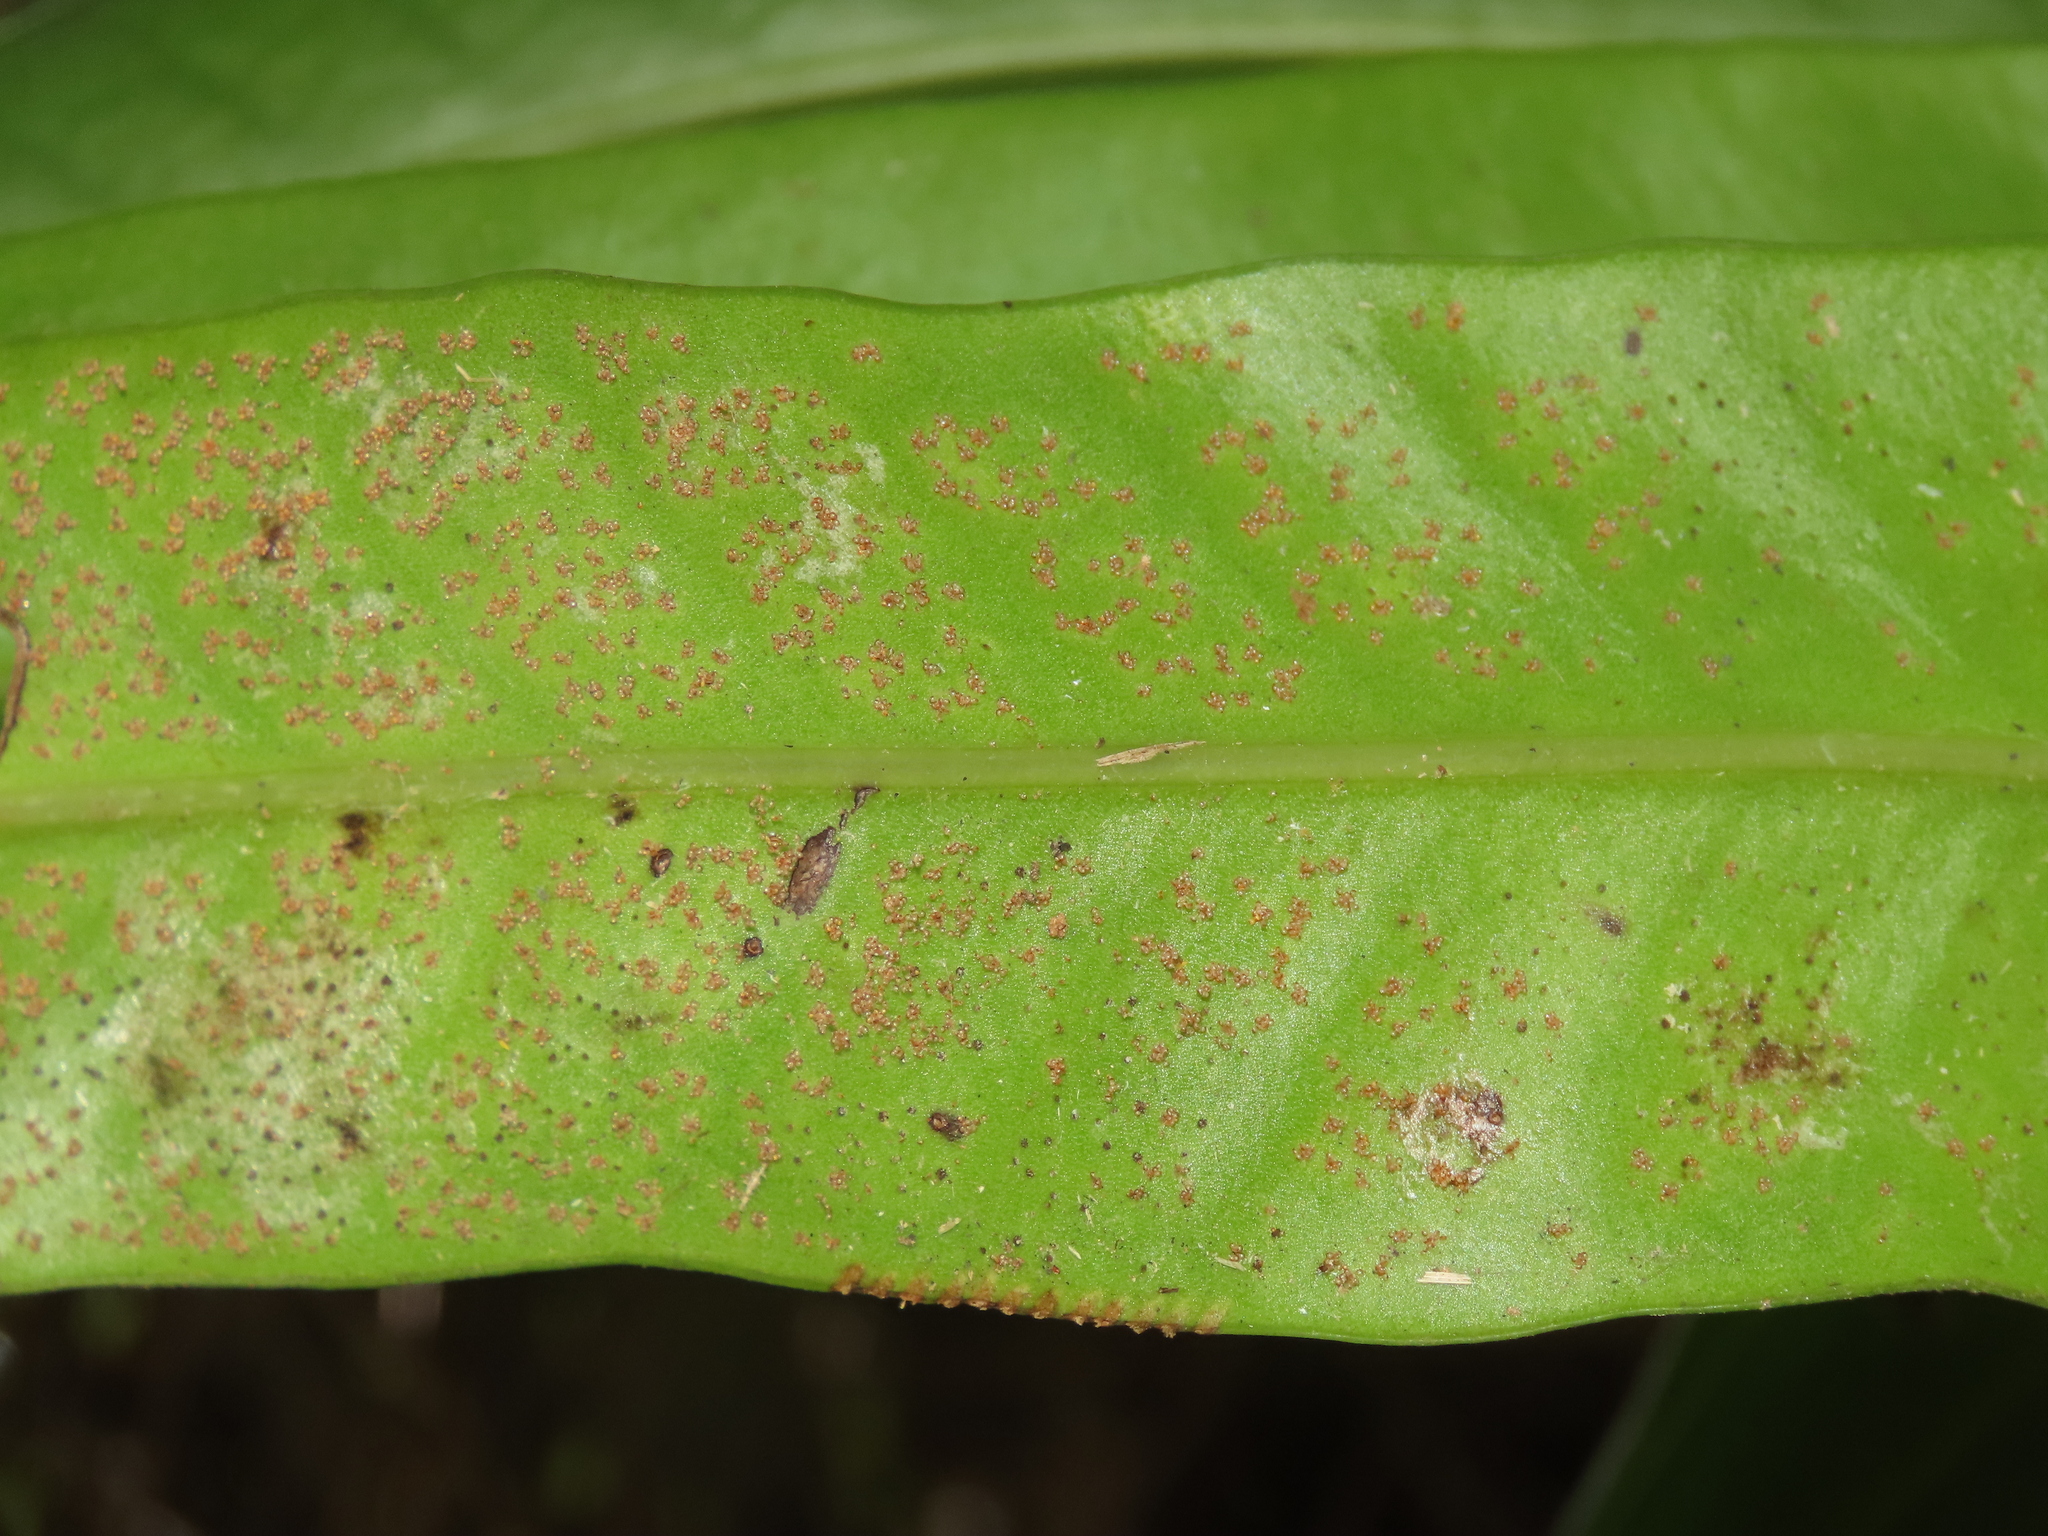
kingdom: Plantae
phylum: Tracheophyta
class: Polypodiopsida
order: Polypodiales
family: Polypodiaceae
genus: Microsorum
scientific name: Microsorum punctatum
